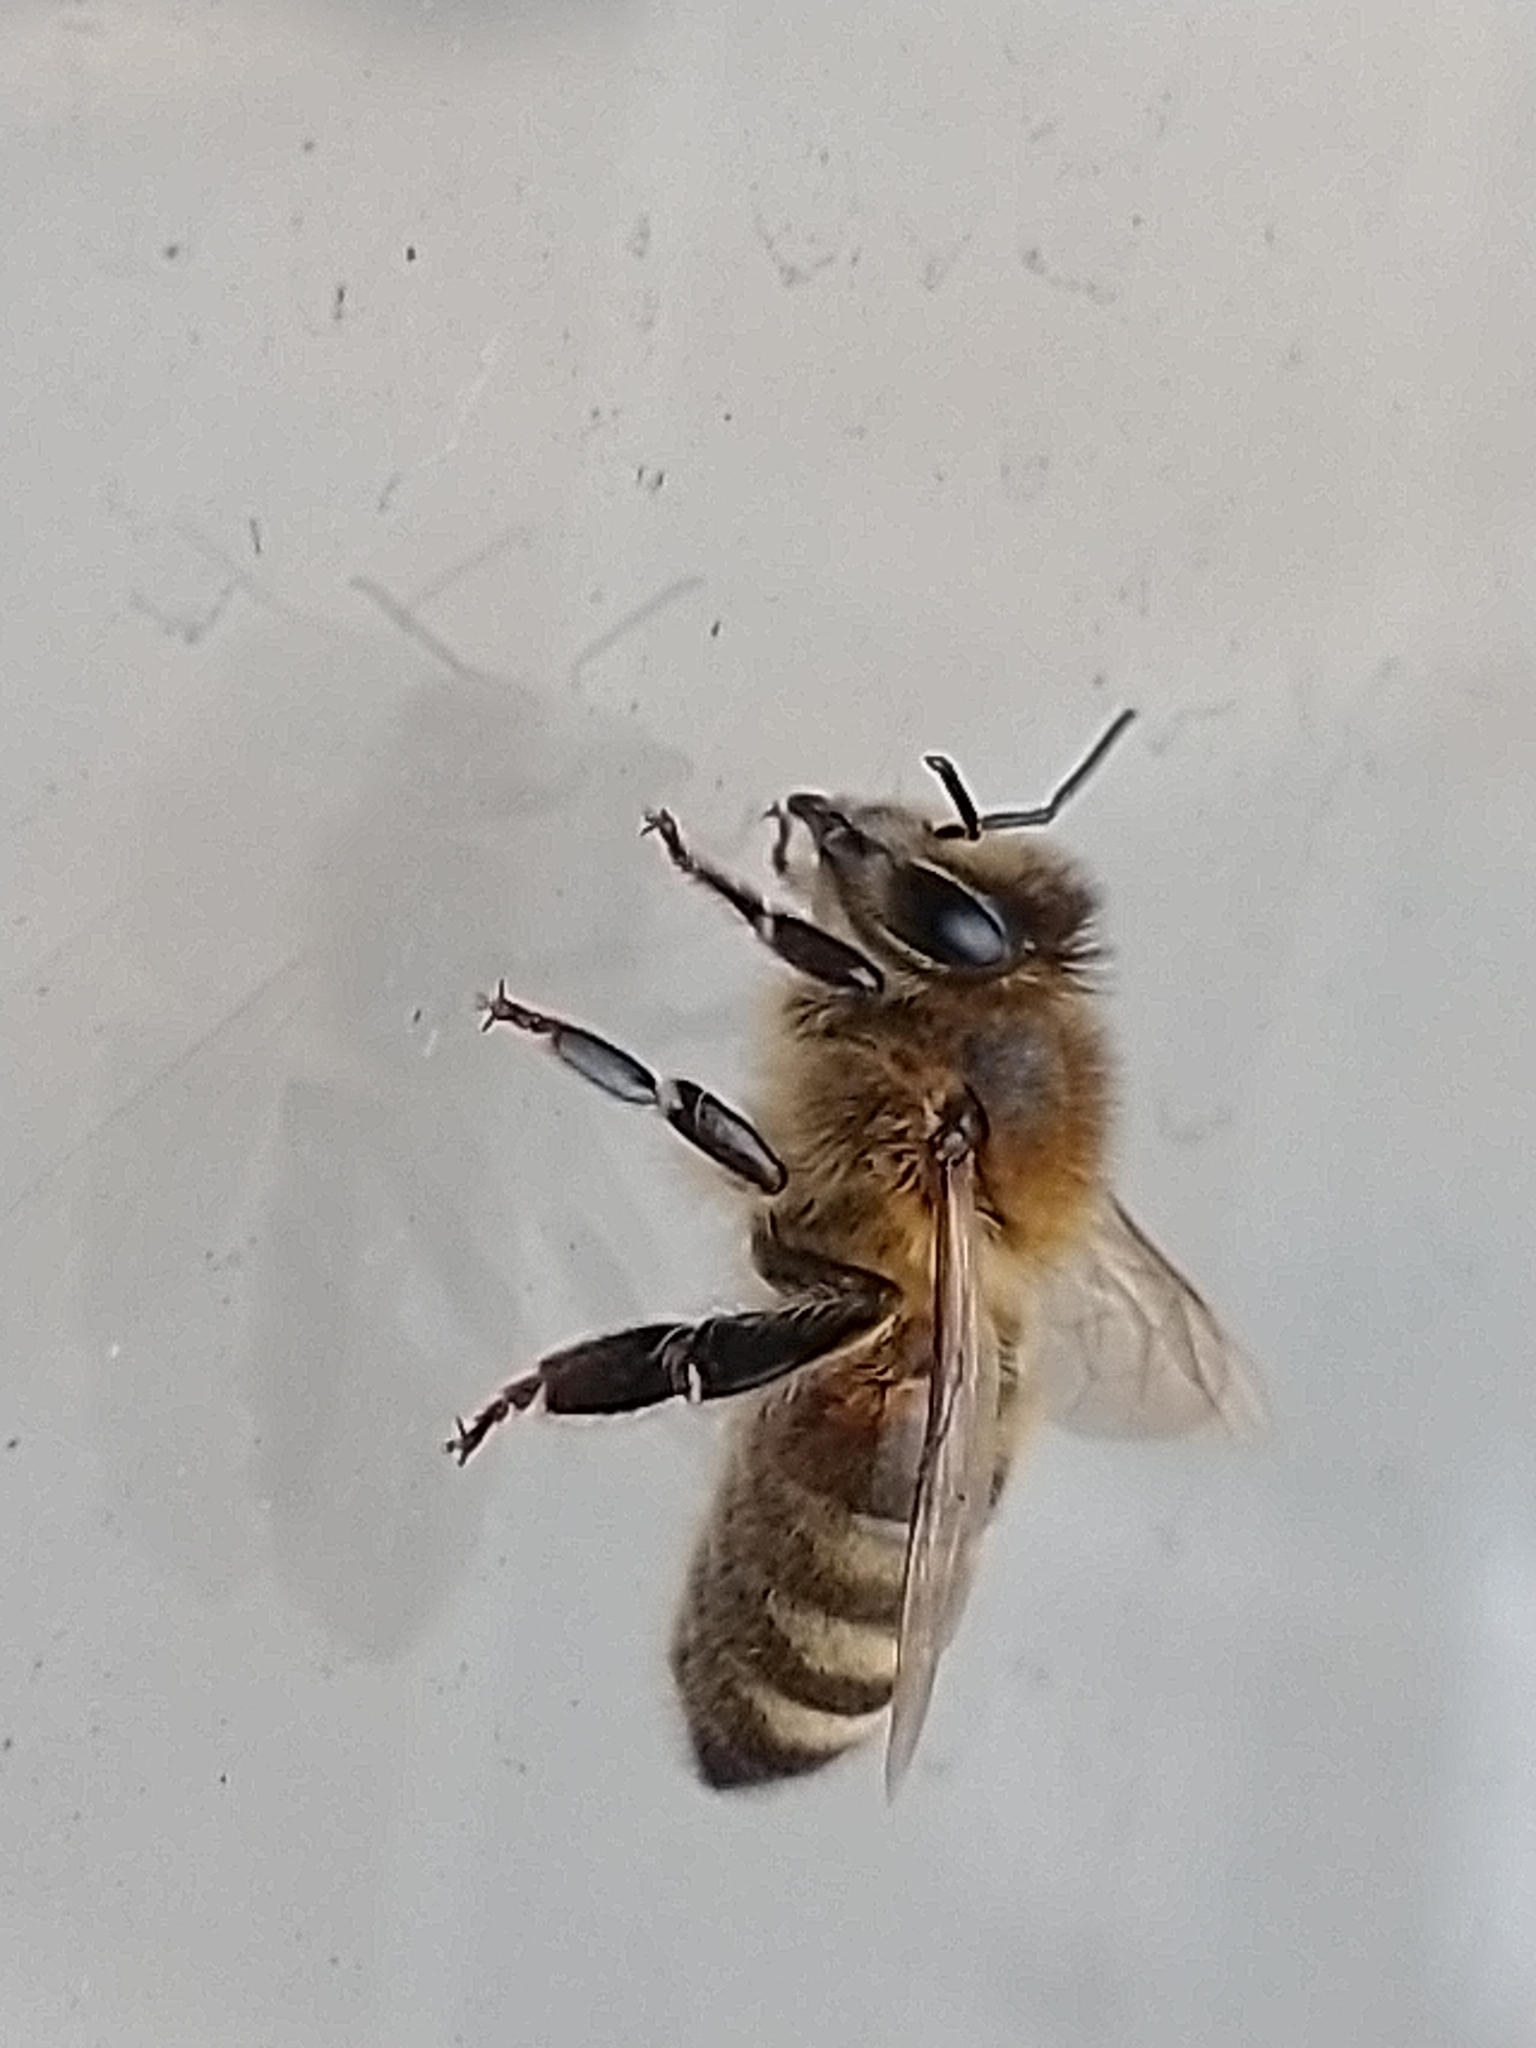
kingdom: Animalia
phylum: Arthropoda
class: Insecta
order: Hymenoptera
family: Apidae
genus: Apis
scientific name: Apis mellifera
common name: Honey bee
